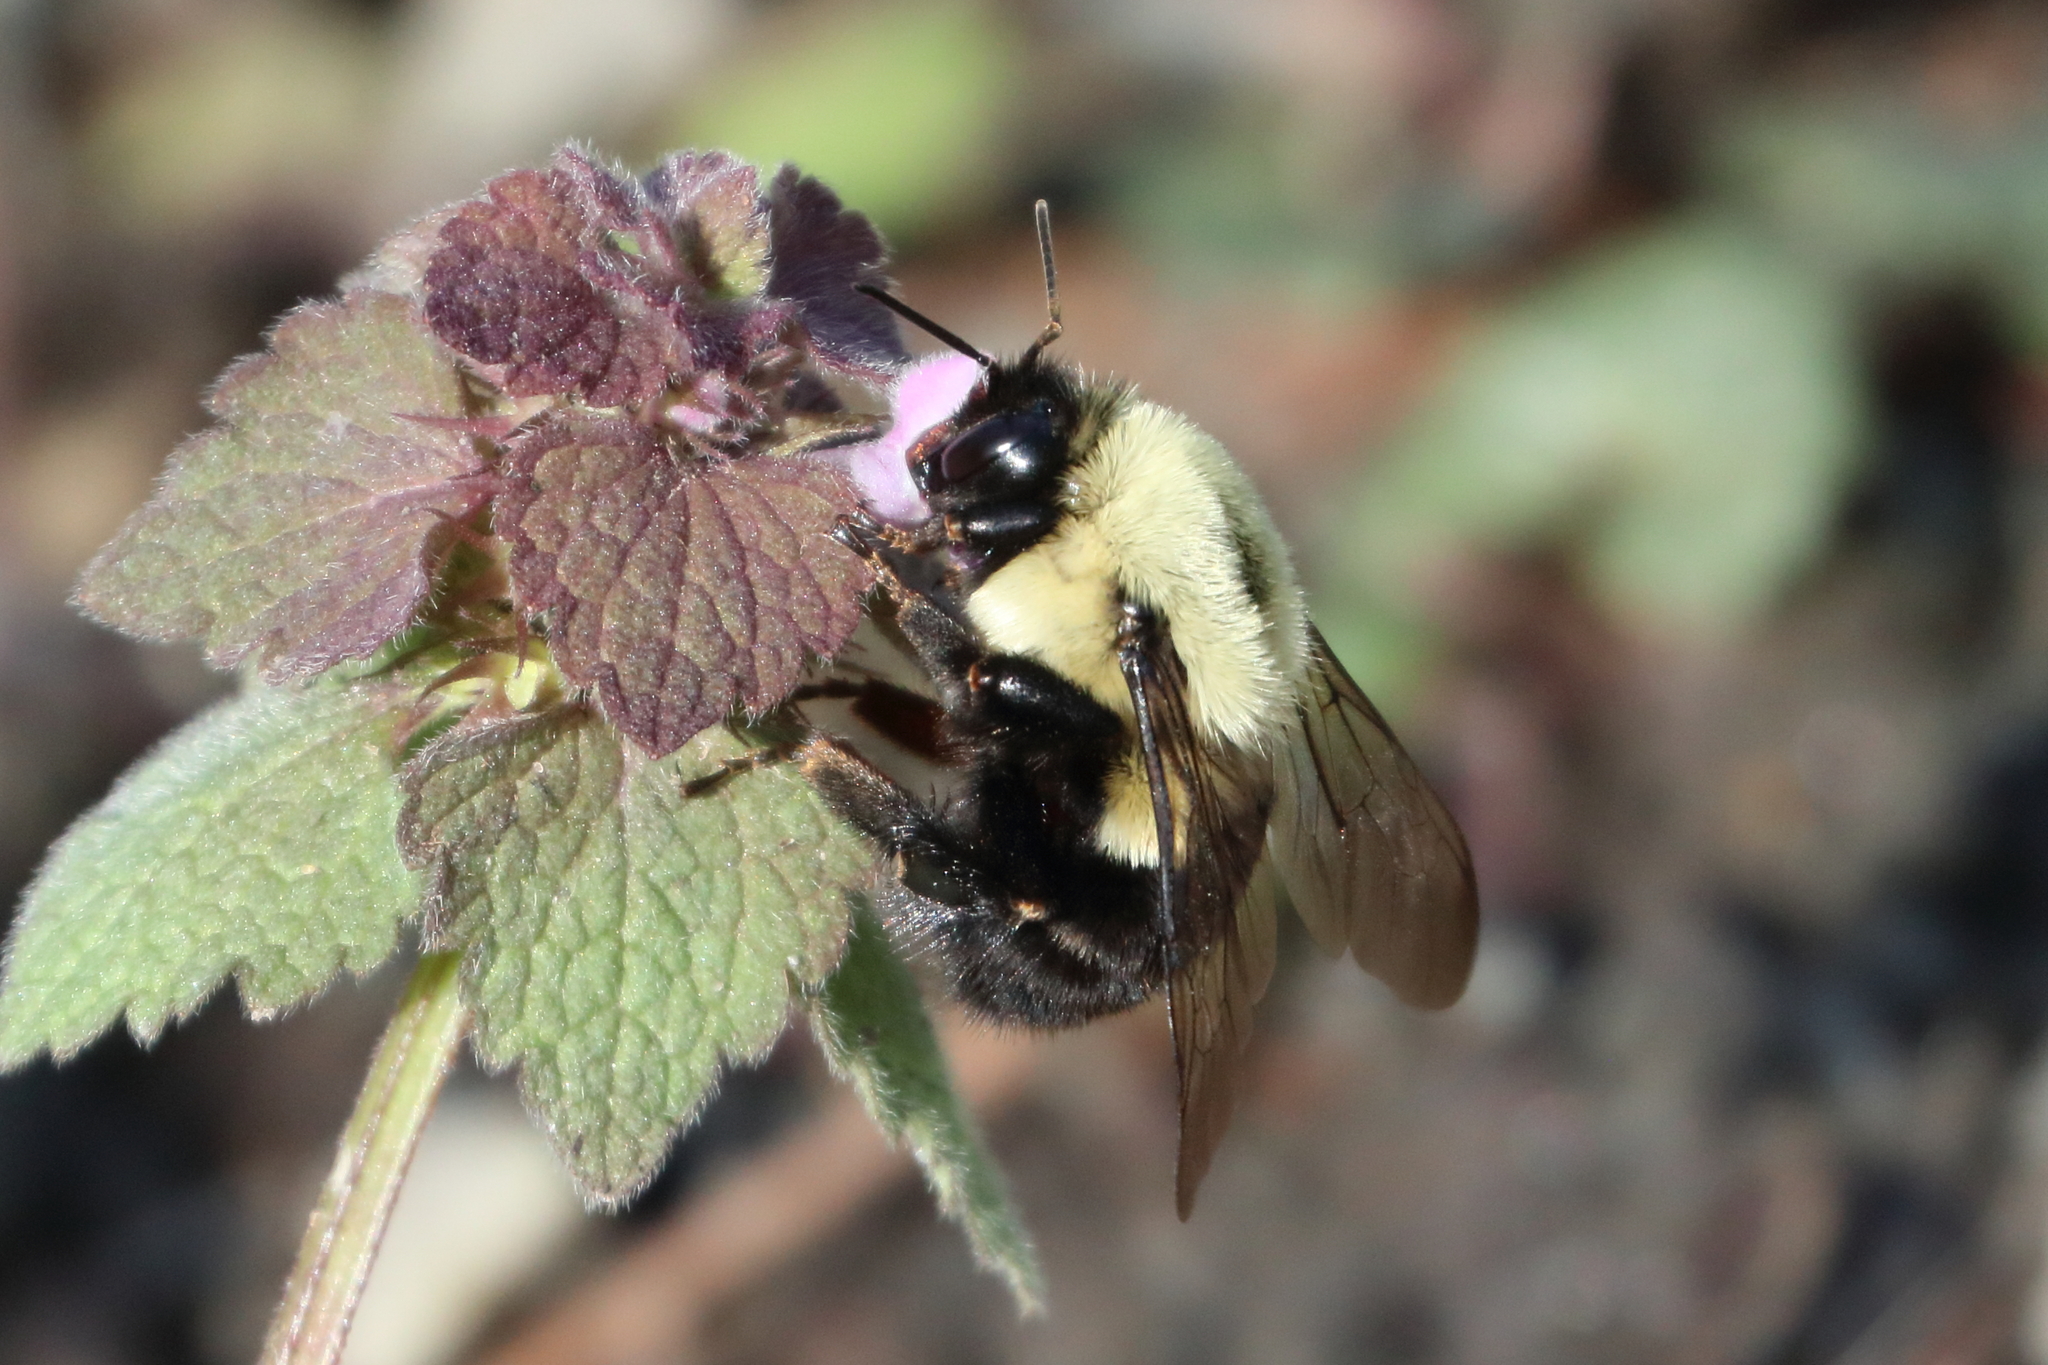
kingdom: Animalia
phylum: Arthropoda
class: Insecta
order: Hymenoptera
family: Apidae
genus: Bombus
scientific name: Bombus impatiens
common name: Common eastern bumble bee
